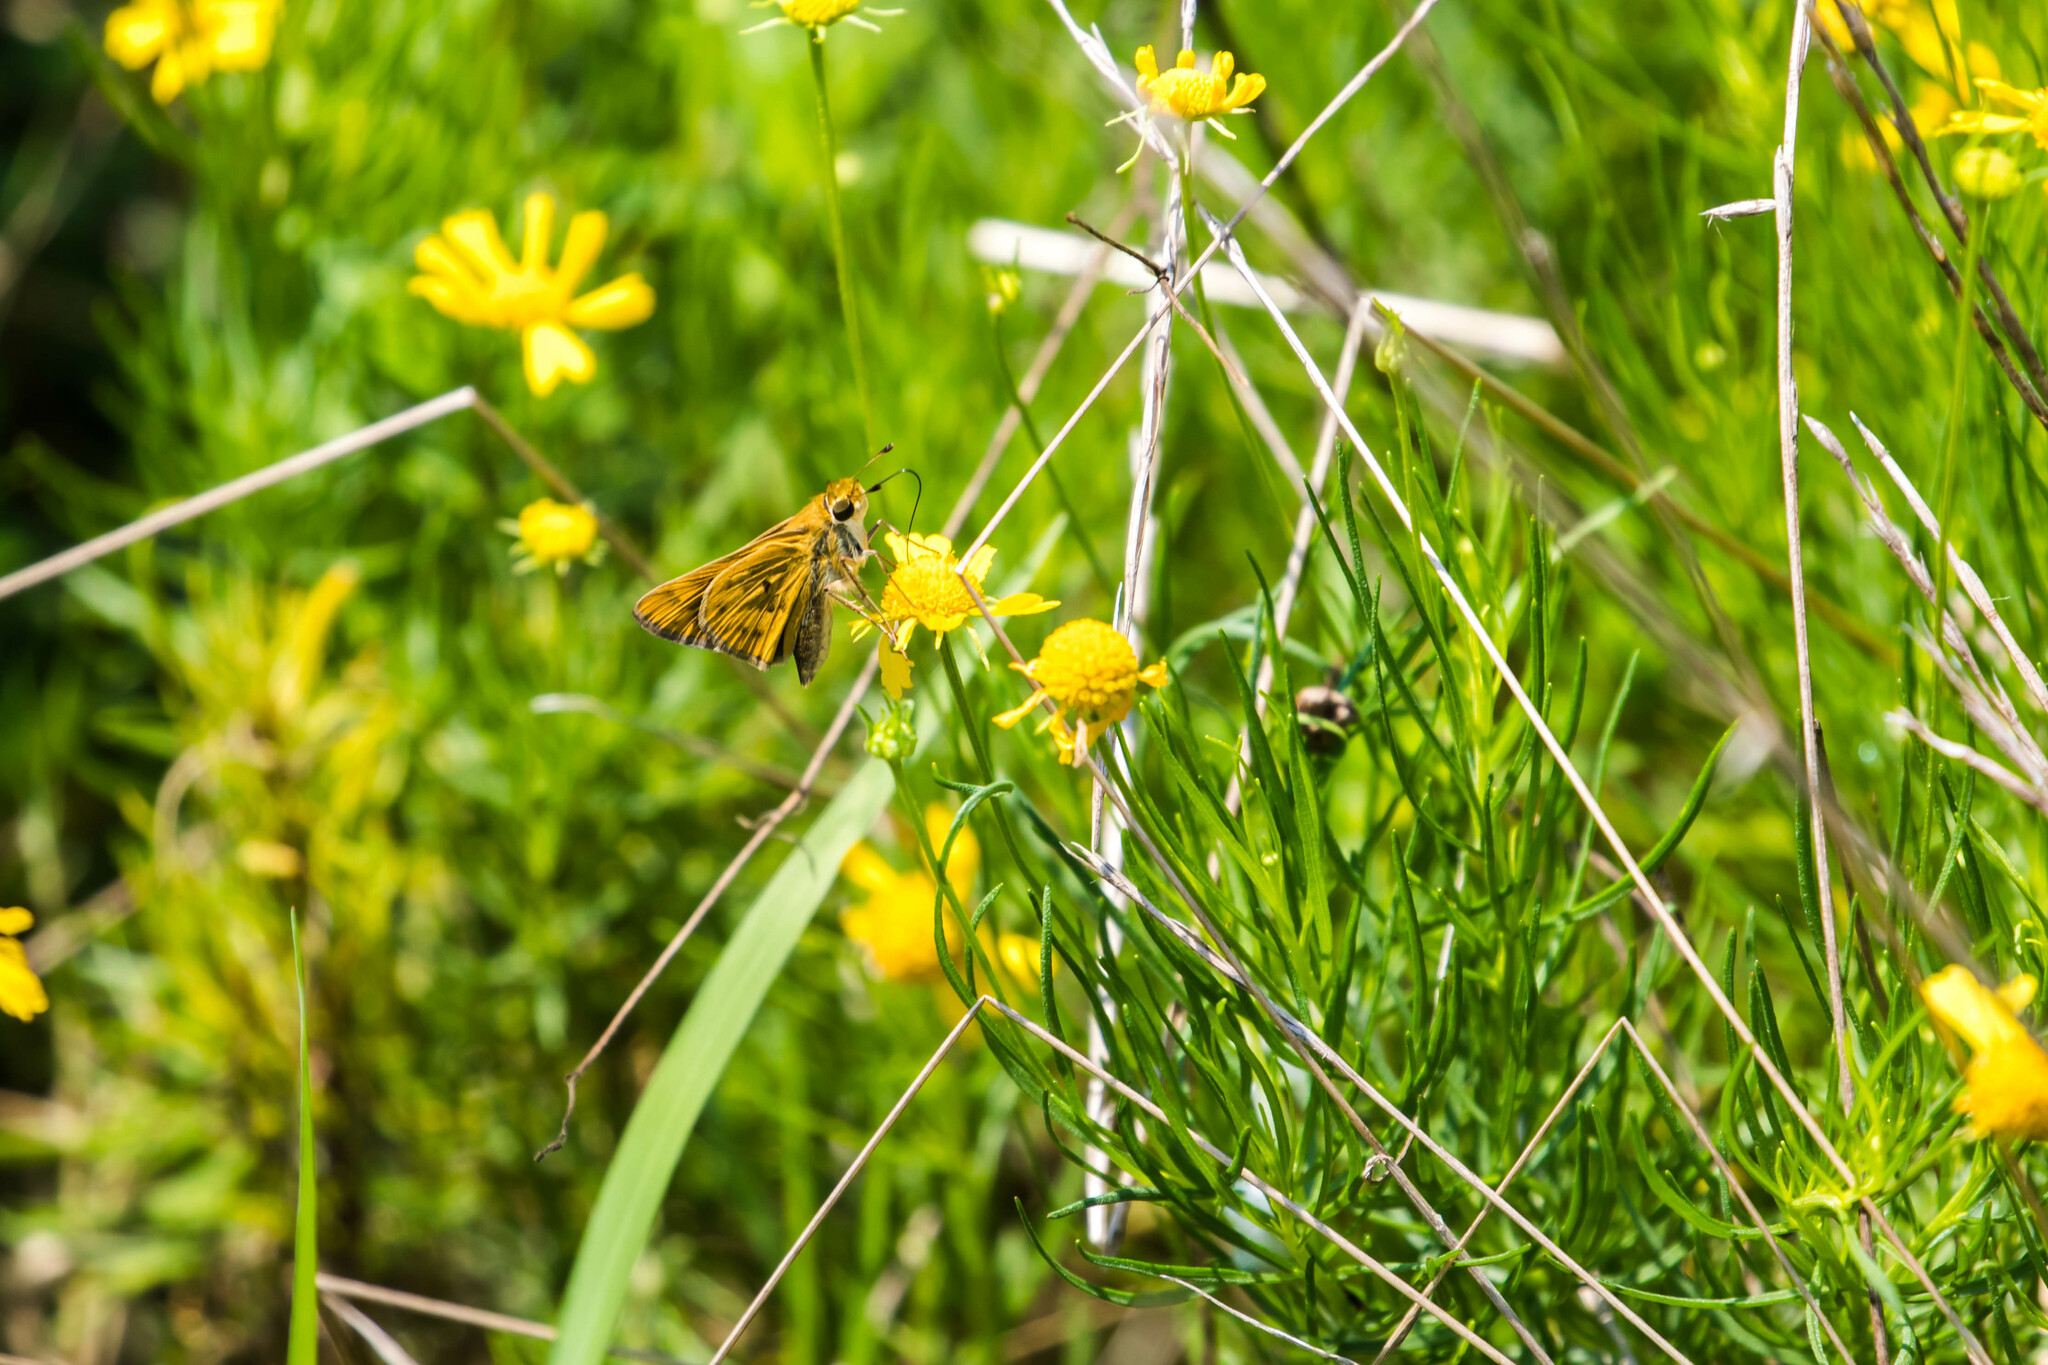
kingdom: Animalia
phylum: Arthropoda
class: Insecta
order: Lepidoptera
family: Hesperiidae
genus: Hylephila
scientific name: Hylephila phyleus
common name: Fiery skipper
